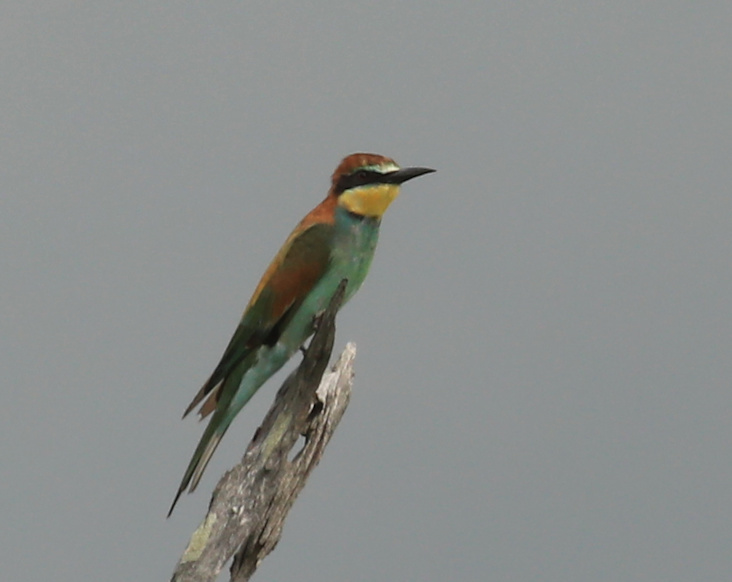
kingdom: Animalia
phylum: Chordata
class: Aves
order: Coraciiformes
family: Meropidae
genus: Merops
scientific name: Merops apiaster
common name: European bee-eater
